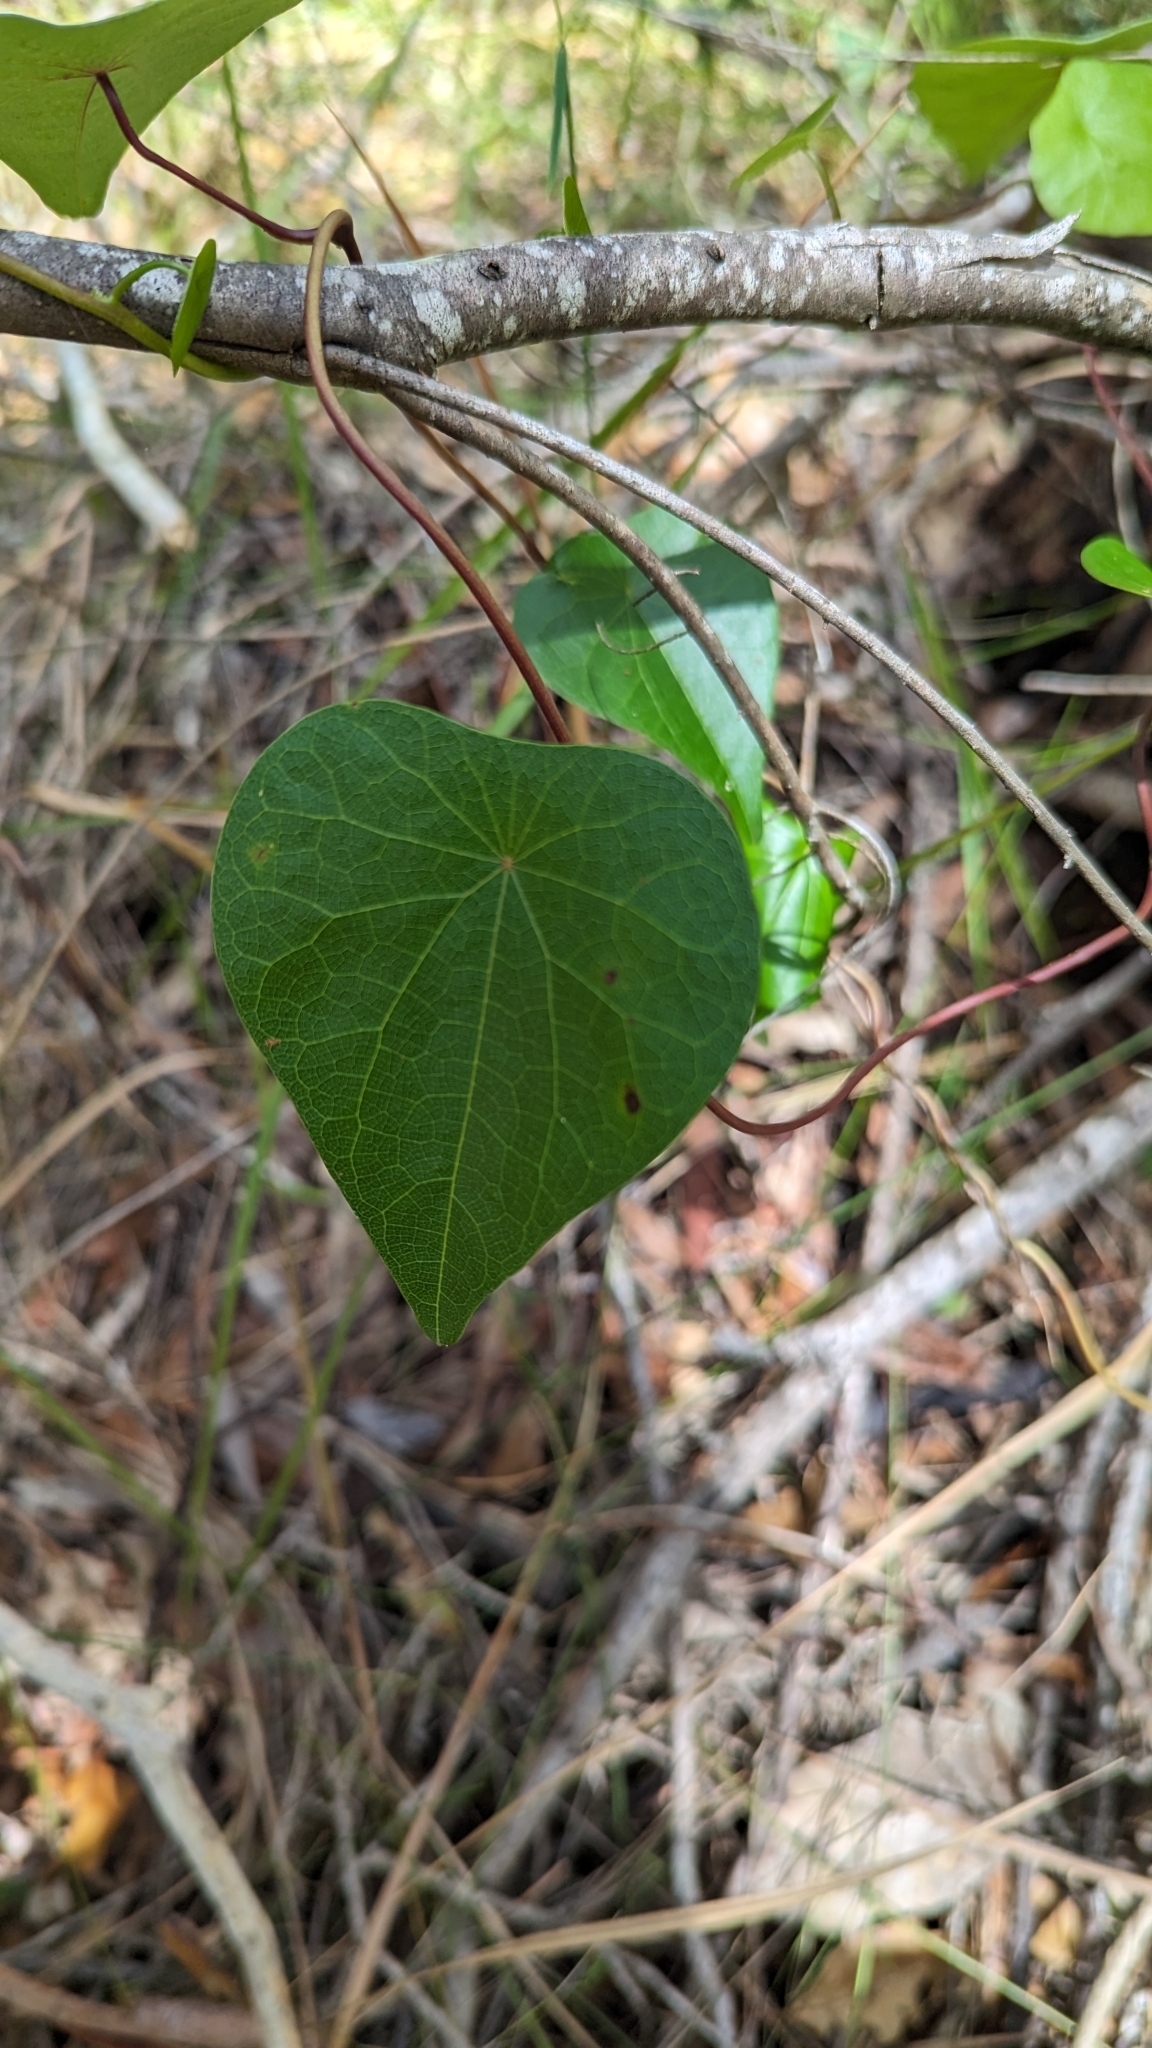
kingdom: Plantae
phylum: Tracheophyta
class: Magnoliopsida
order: Ranunculales
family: Menispermaceae
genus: Stephania
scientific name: Stephania japonica
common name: Snake vine
